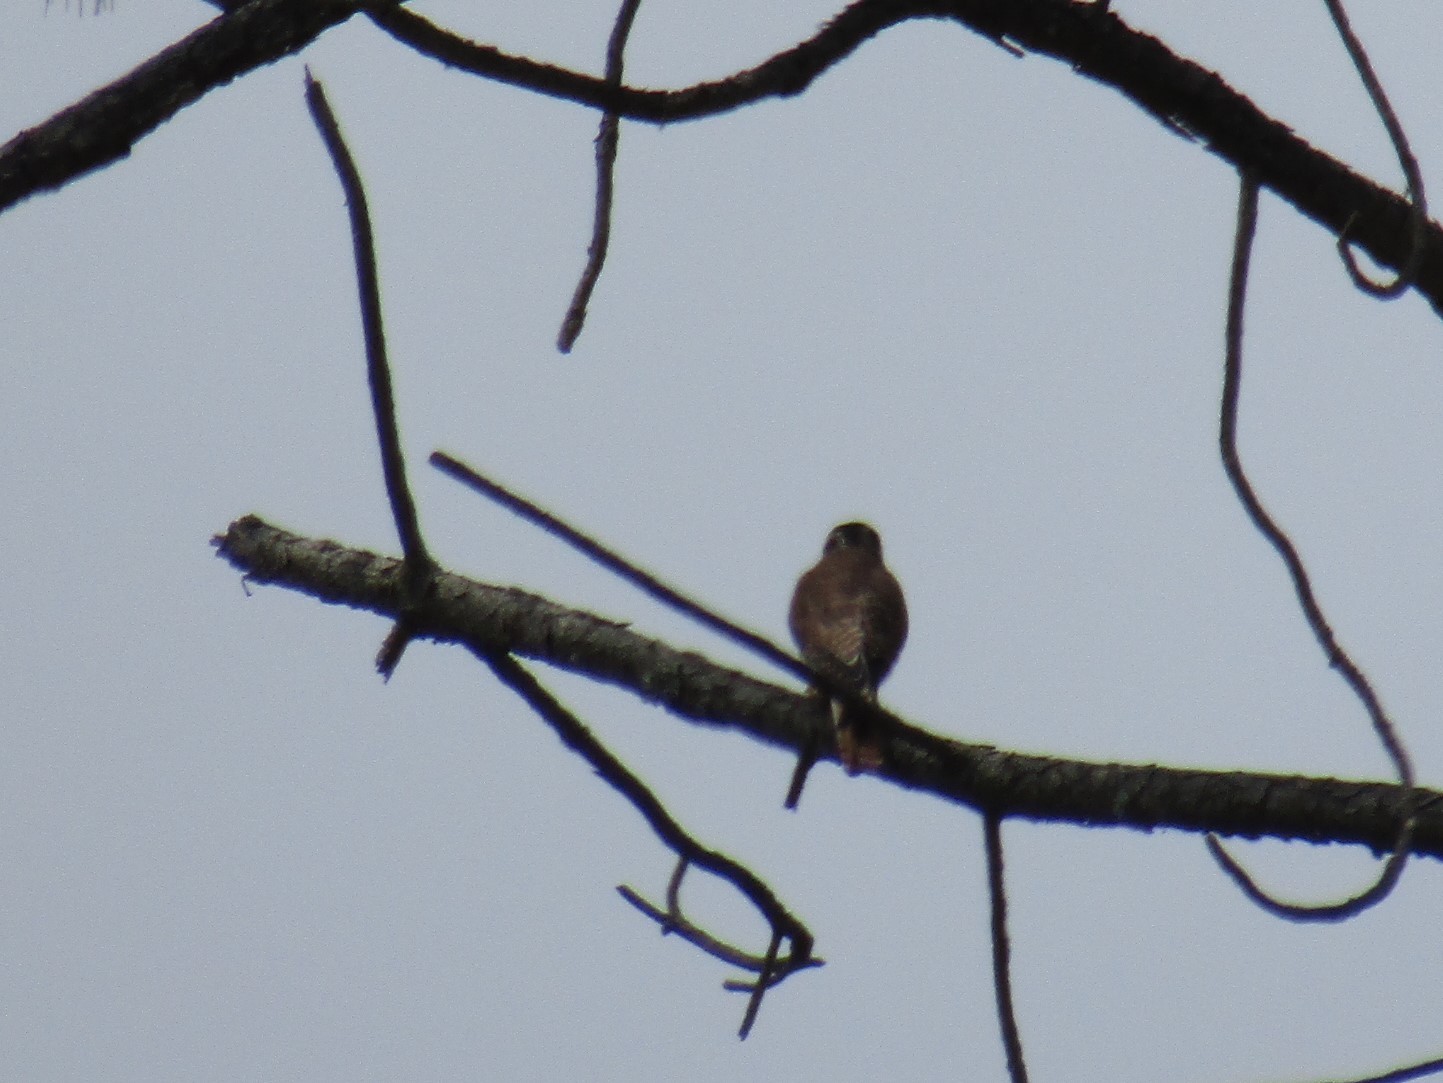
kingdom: Animalia
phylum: Chordata
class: Aves
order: Falconiformes
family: Falconidae
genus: Falco
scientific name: Falco sparverius
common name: American kestrel
